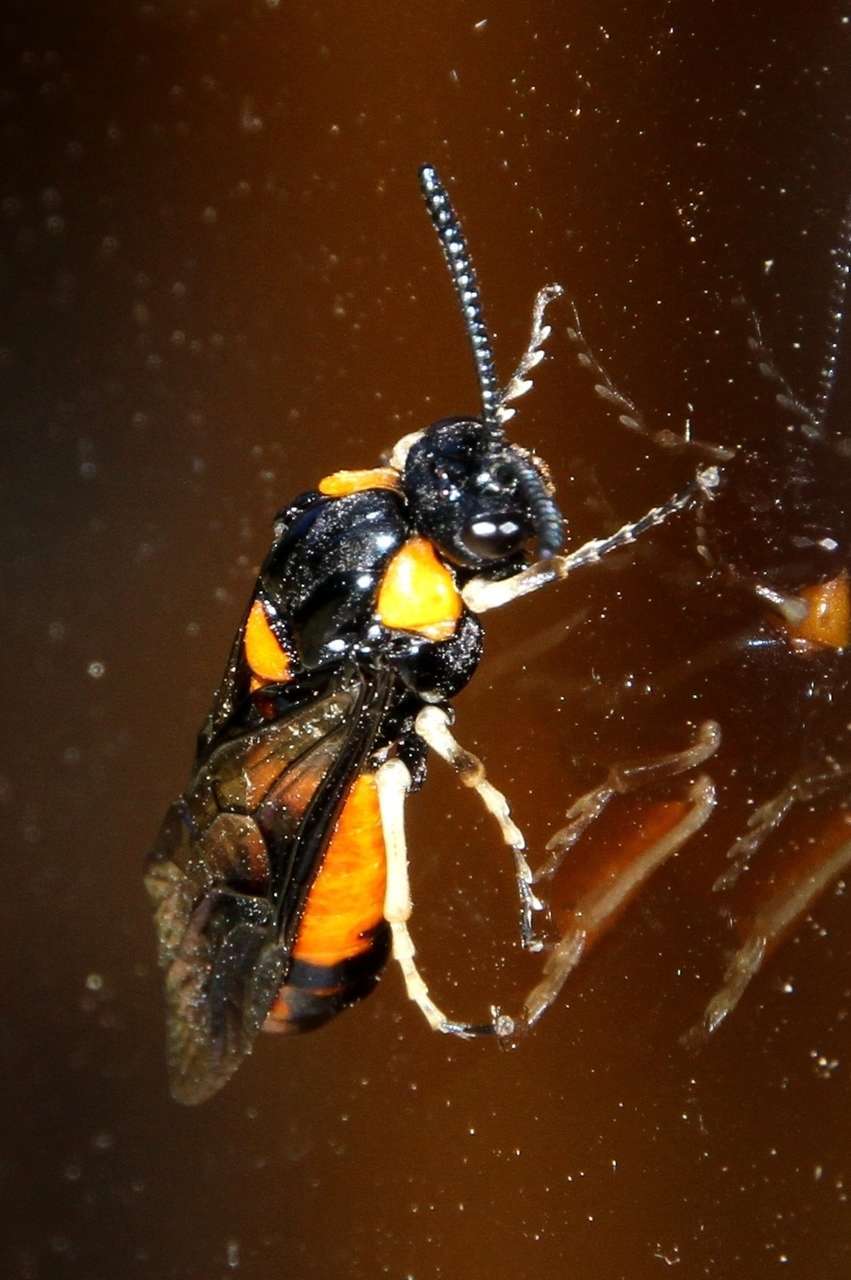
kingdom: Animalia
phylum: Arthropoda
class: Insecta
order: Hymenoptera
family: Pergidae
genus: Lophyrotoma
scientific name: Lophyrotoma interrupta
